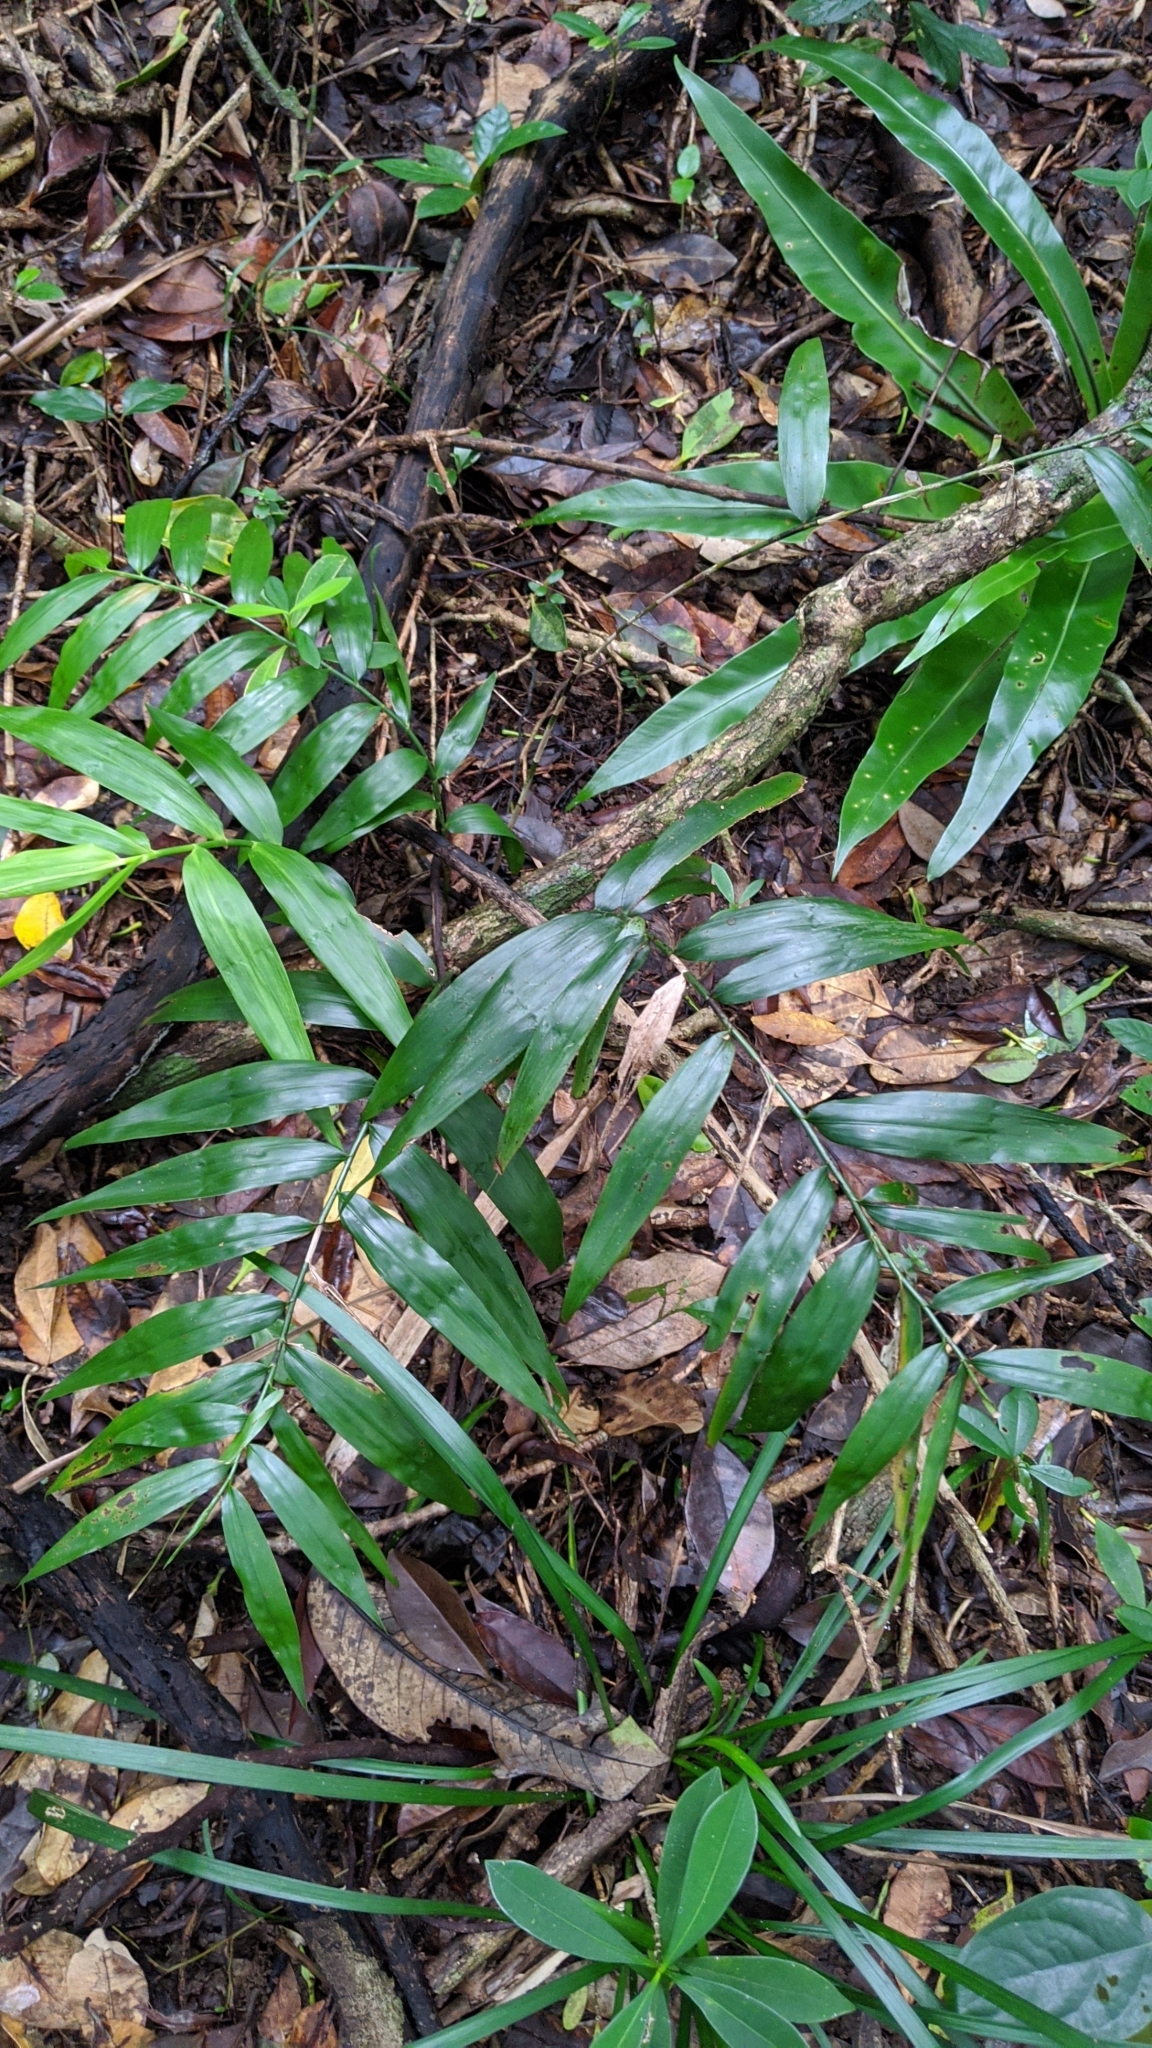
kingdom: Plantae
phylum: Tracheophyta
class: Liliopsida
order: Poales
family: Flagellariaceae
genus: Flagellaria
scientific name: Flagellaria indica
